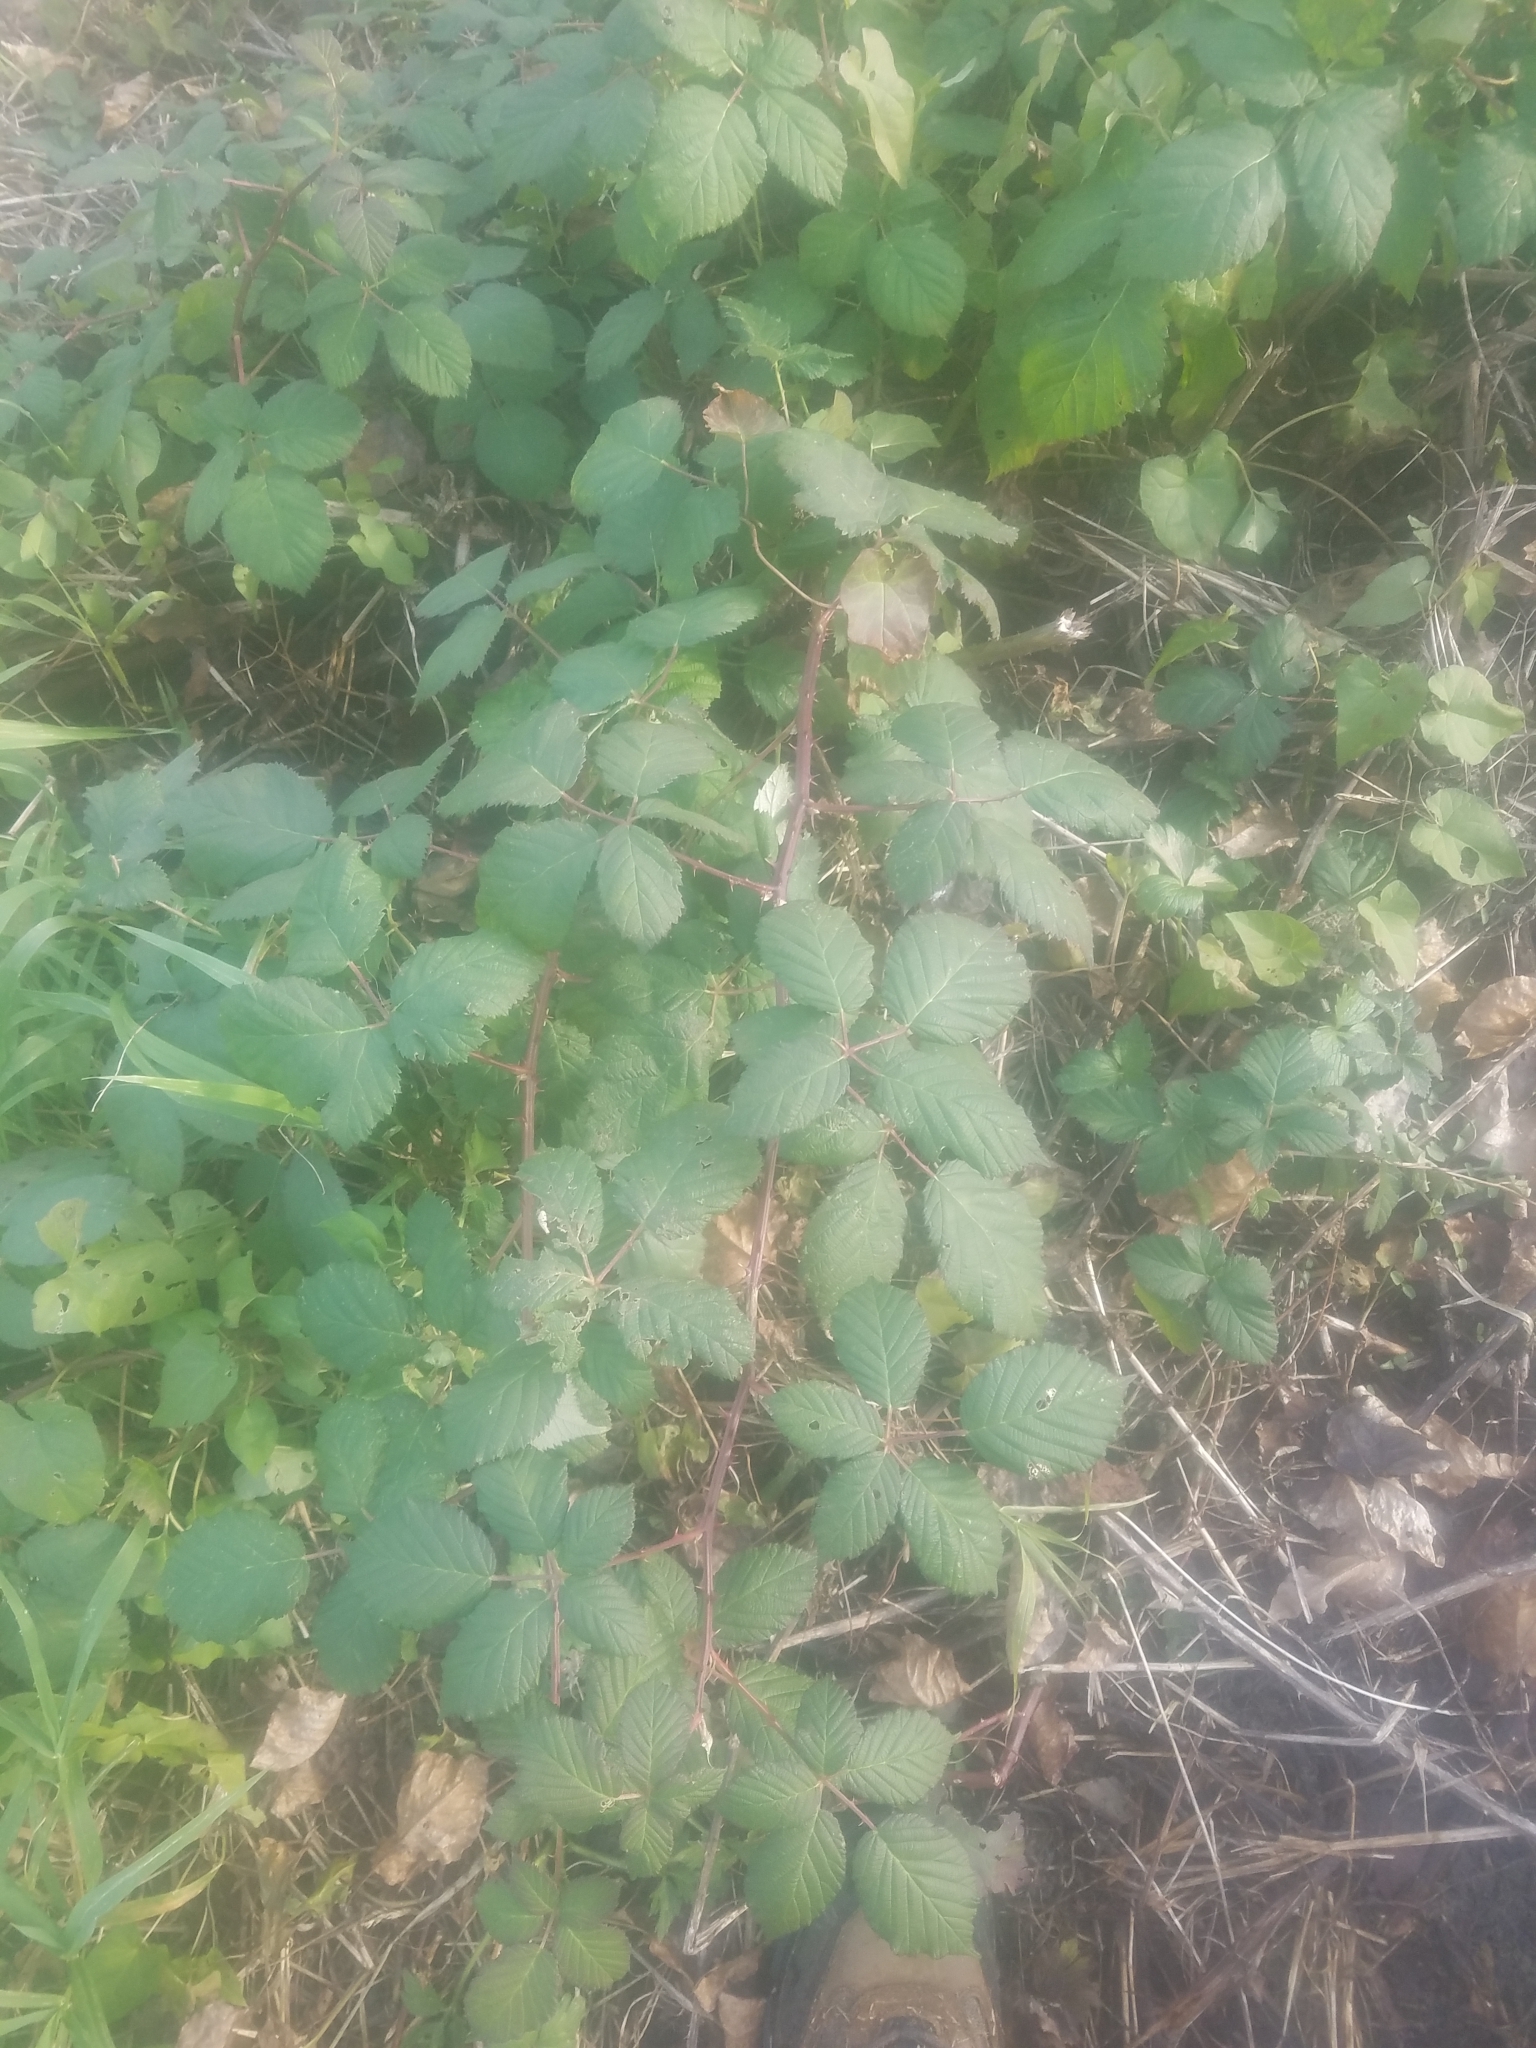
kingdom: Plantae
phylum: Tracheophyta
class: Magnoliopsida
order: Rosales
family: Rosaceae
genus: Rubus
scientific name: Rubus bifrons
